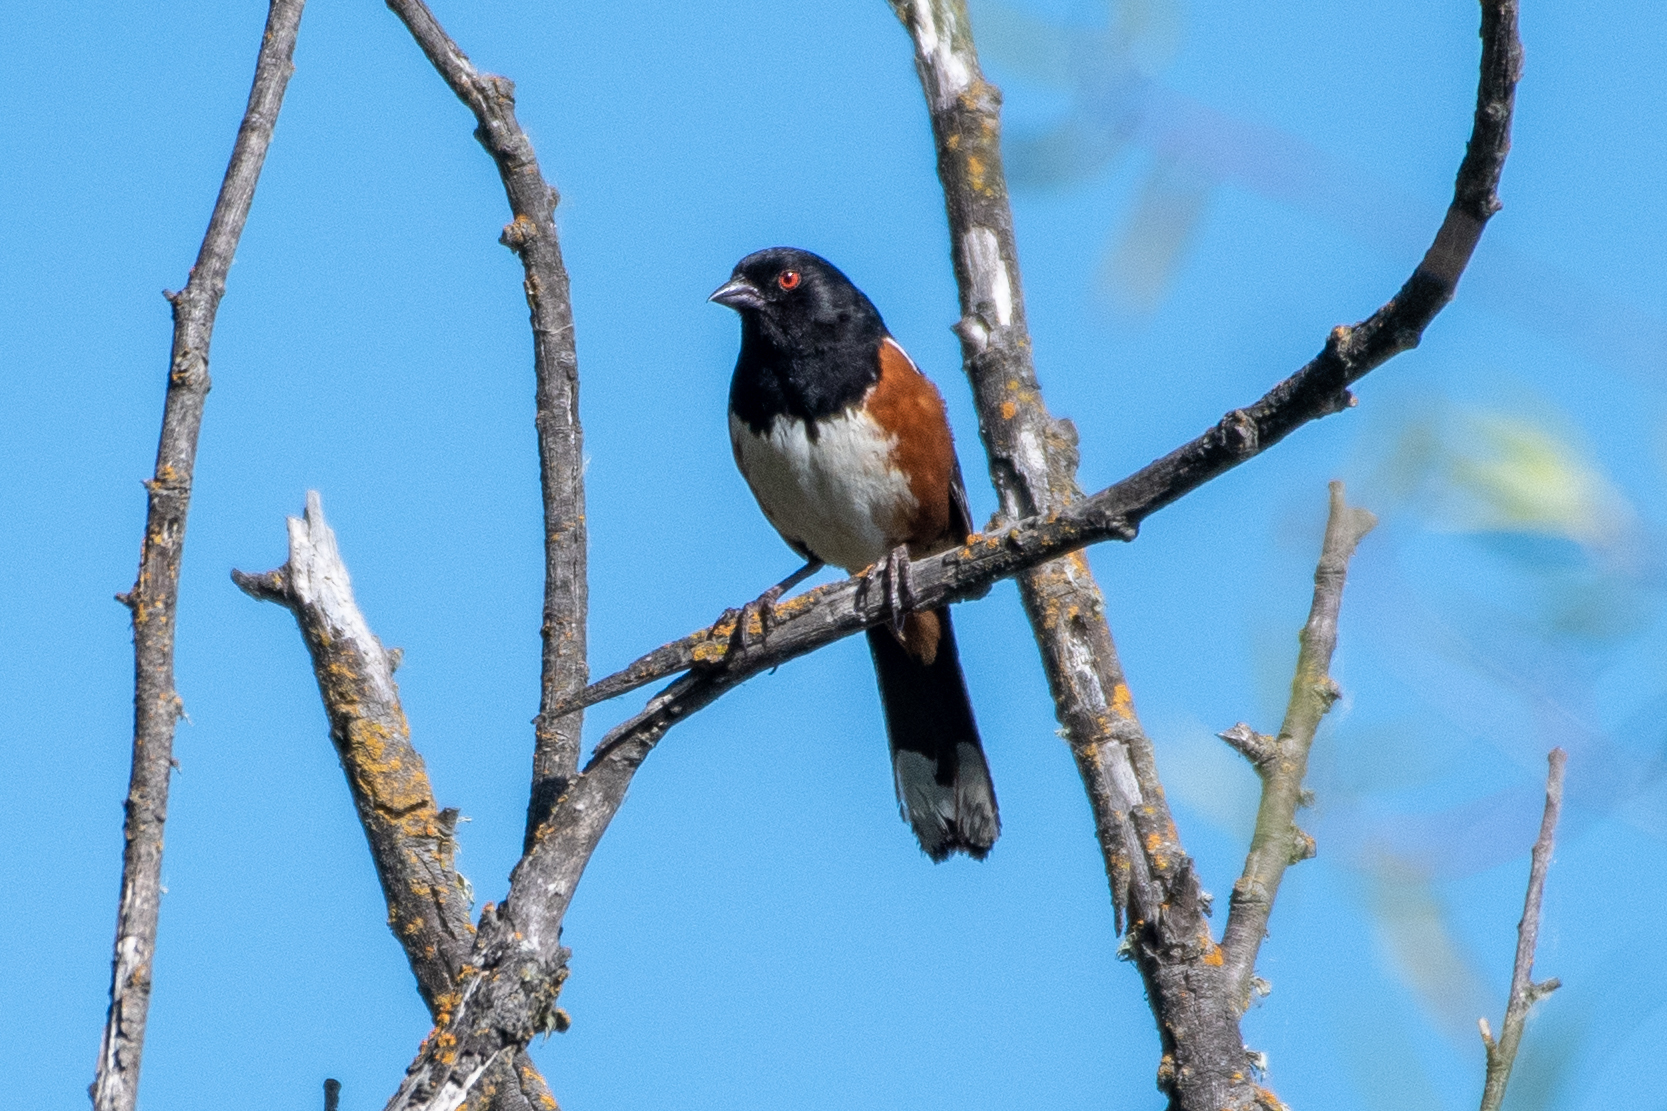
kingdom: Animalia
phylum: Chordata
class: Aves
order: Passeriformes
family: Passerellidae
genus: Pipilo
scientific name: Pipilo maculatus
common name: Spotted towhee
